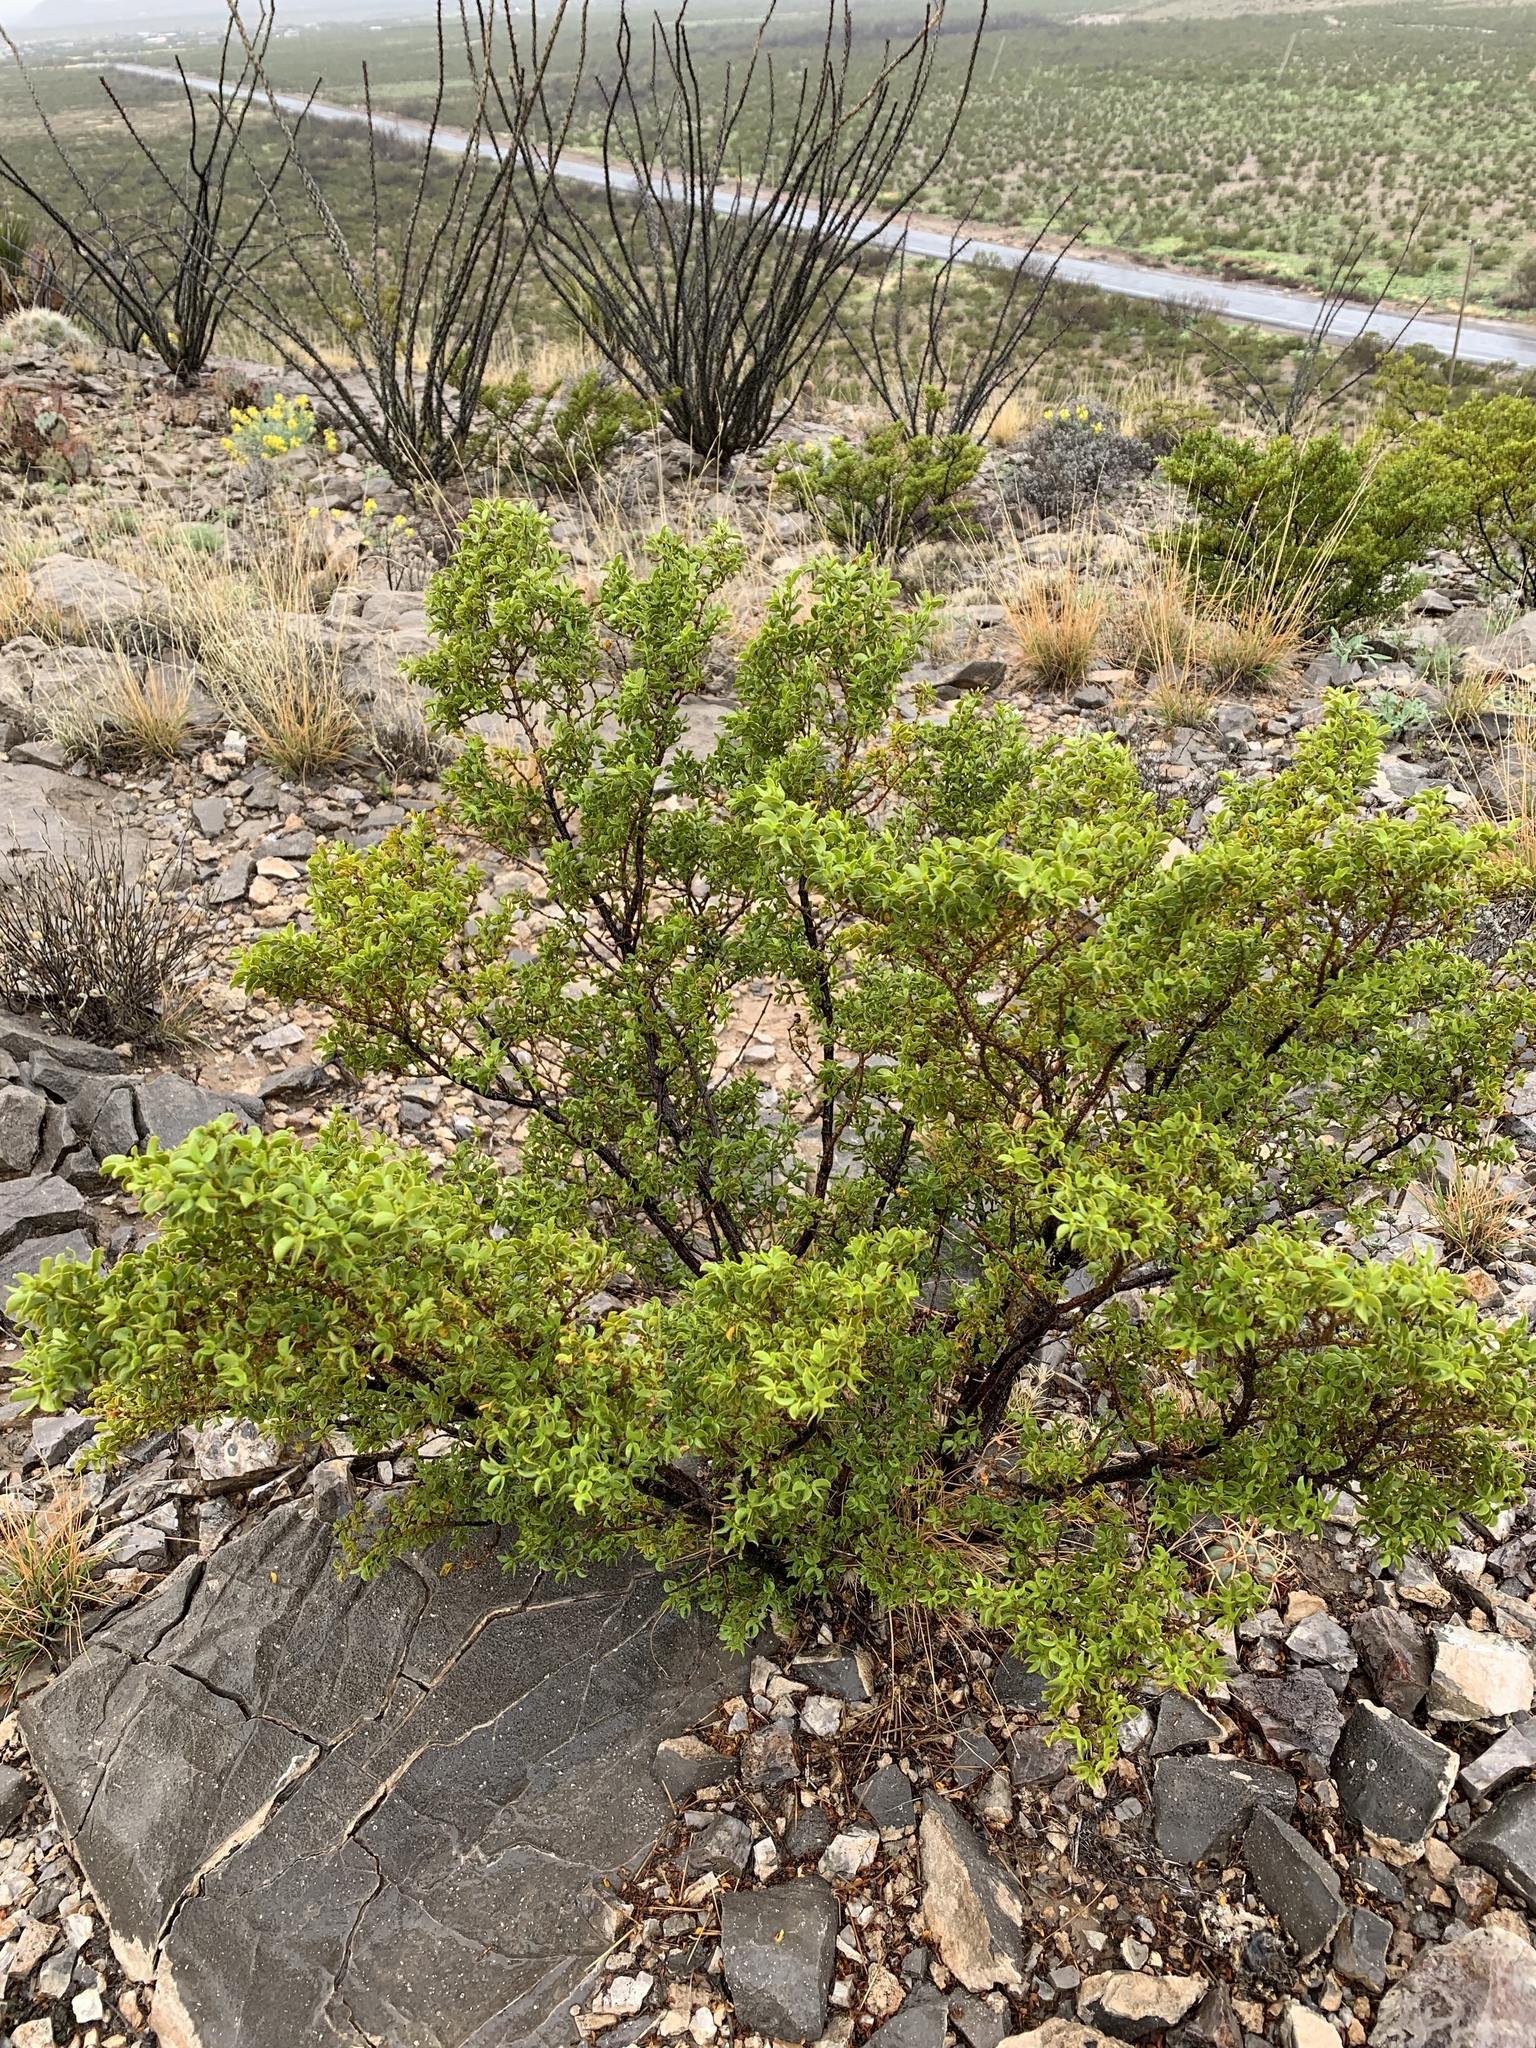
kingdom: Plantae
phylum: Tracheophyta
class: Magnoliopsida
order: Zygophyllales
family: Zygophyllaceae
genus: Larrea
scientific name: Larrea tridentata
